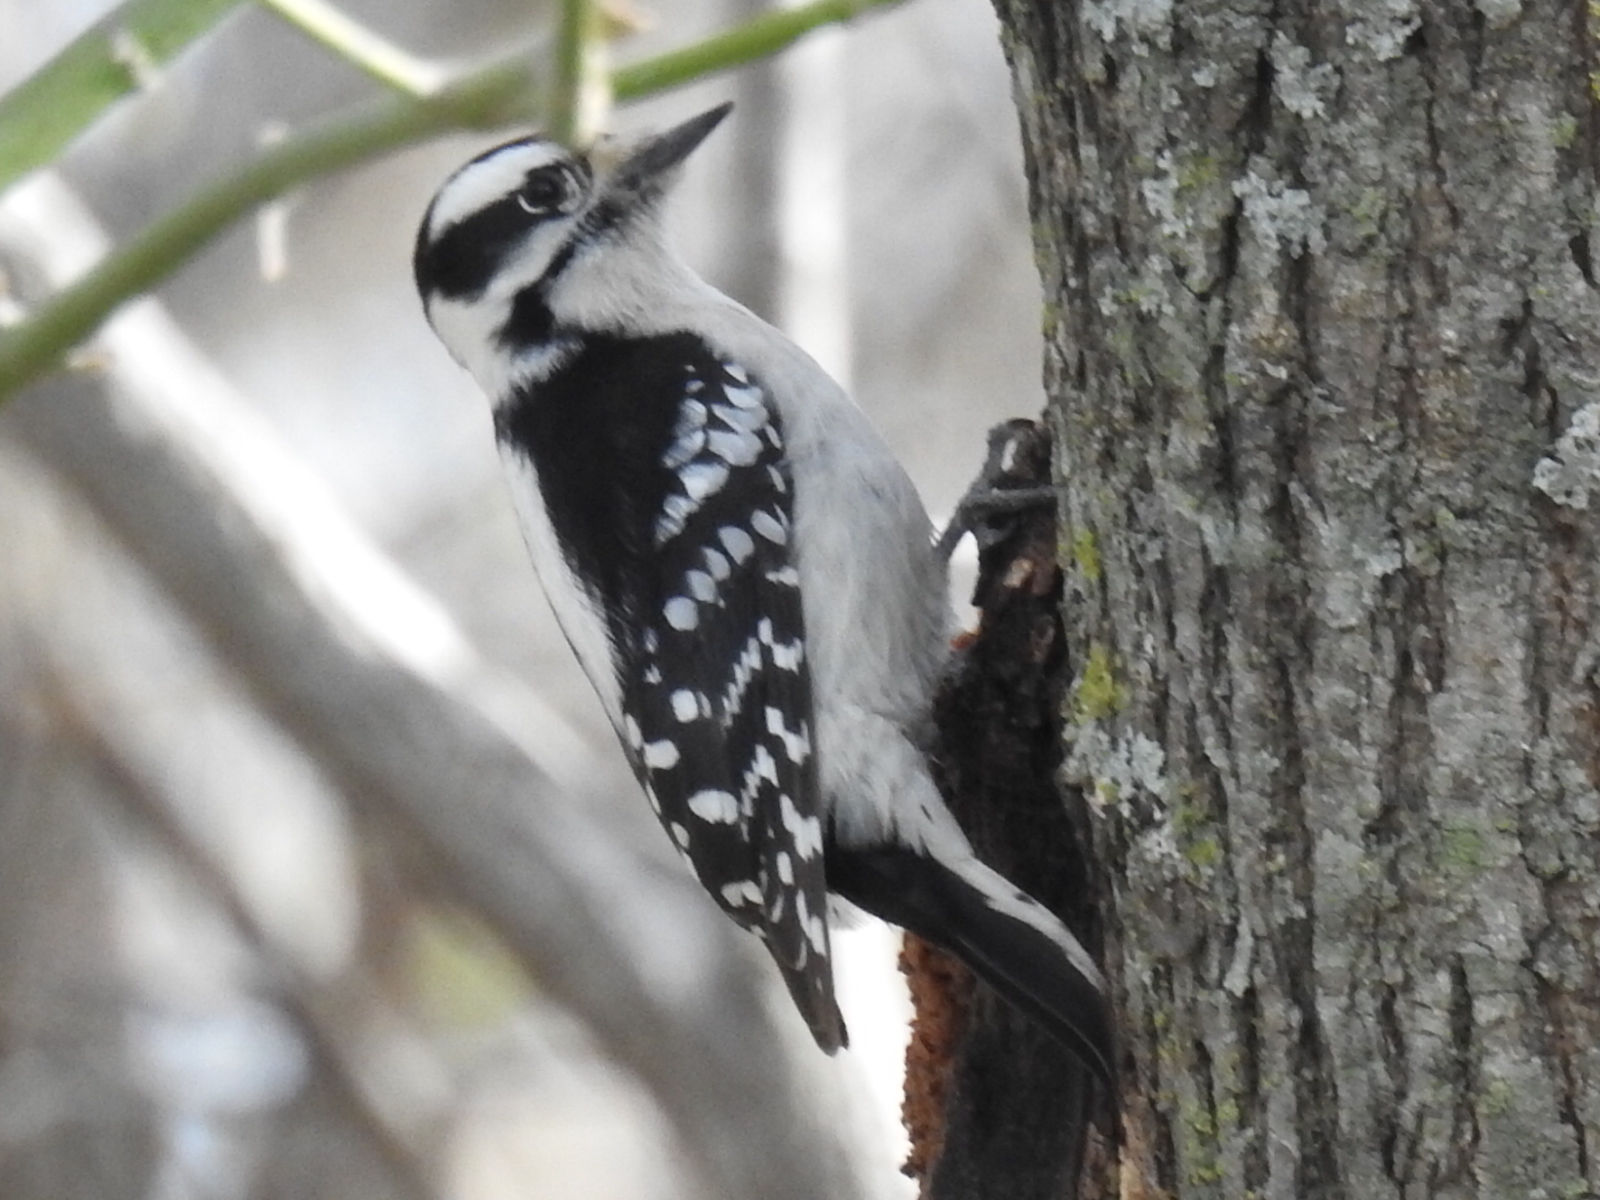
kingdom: Animalia
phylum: Chordata
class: Aves
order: Piciformes
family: Picidae
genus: Dryobates
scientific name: Dryobates pubescens
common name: Downy woodpecker
